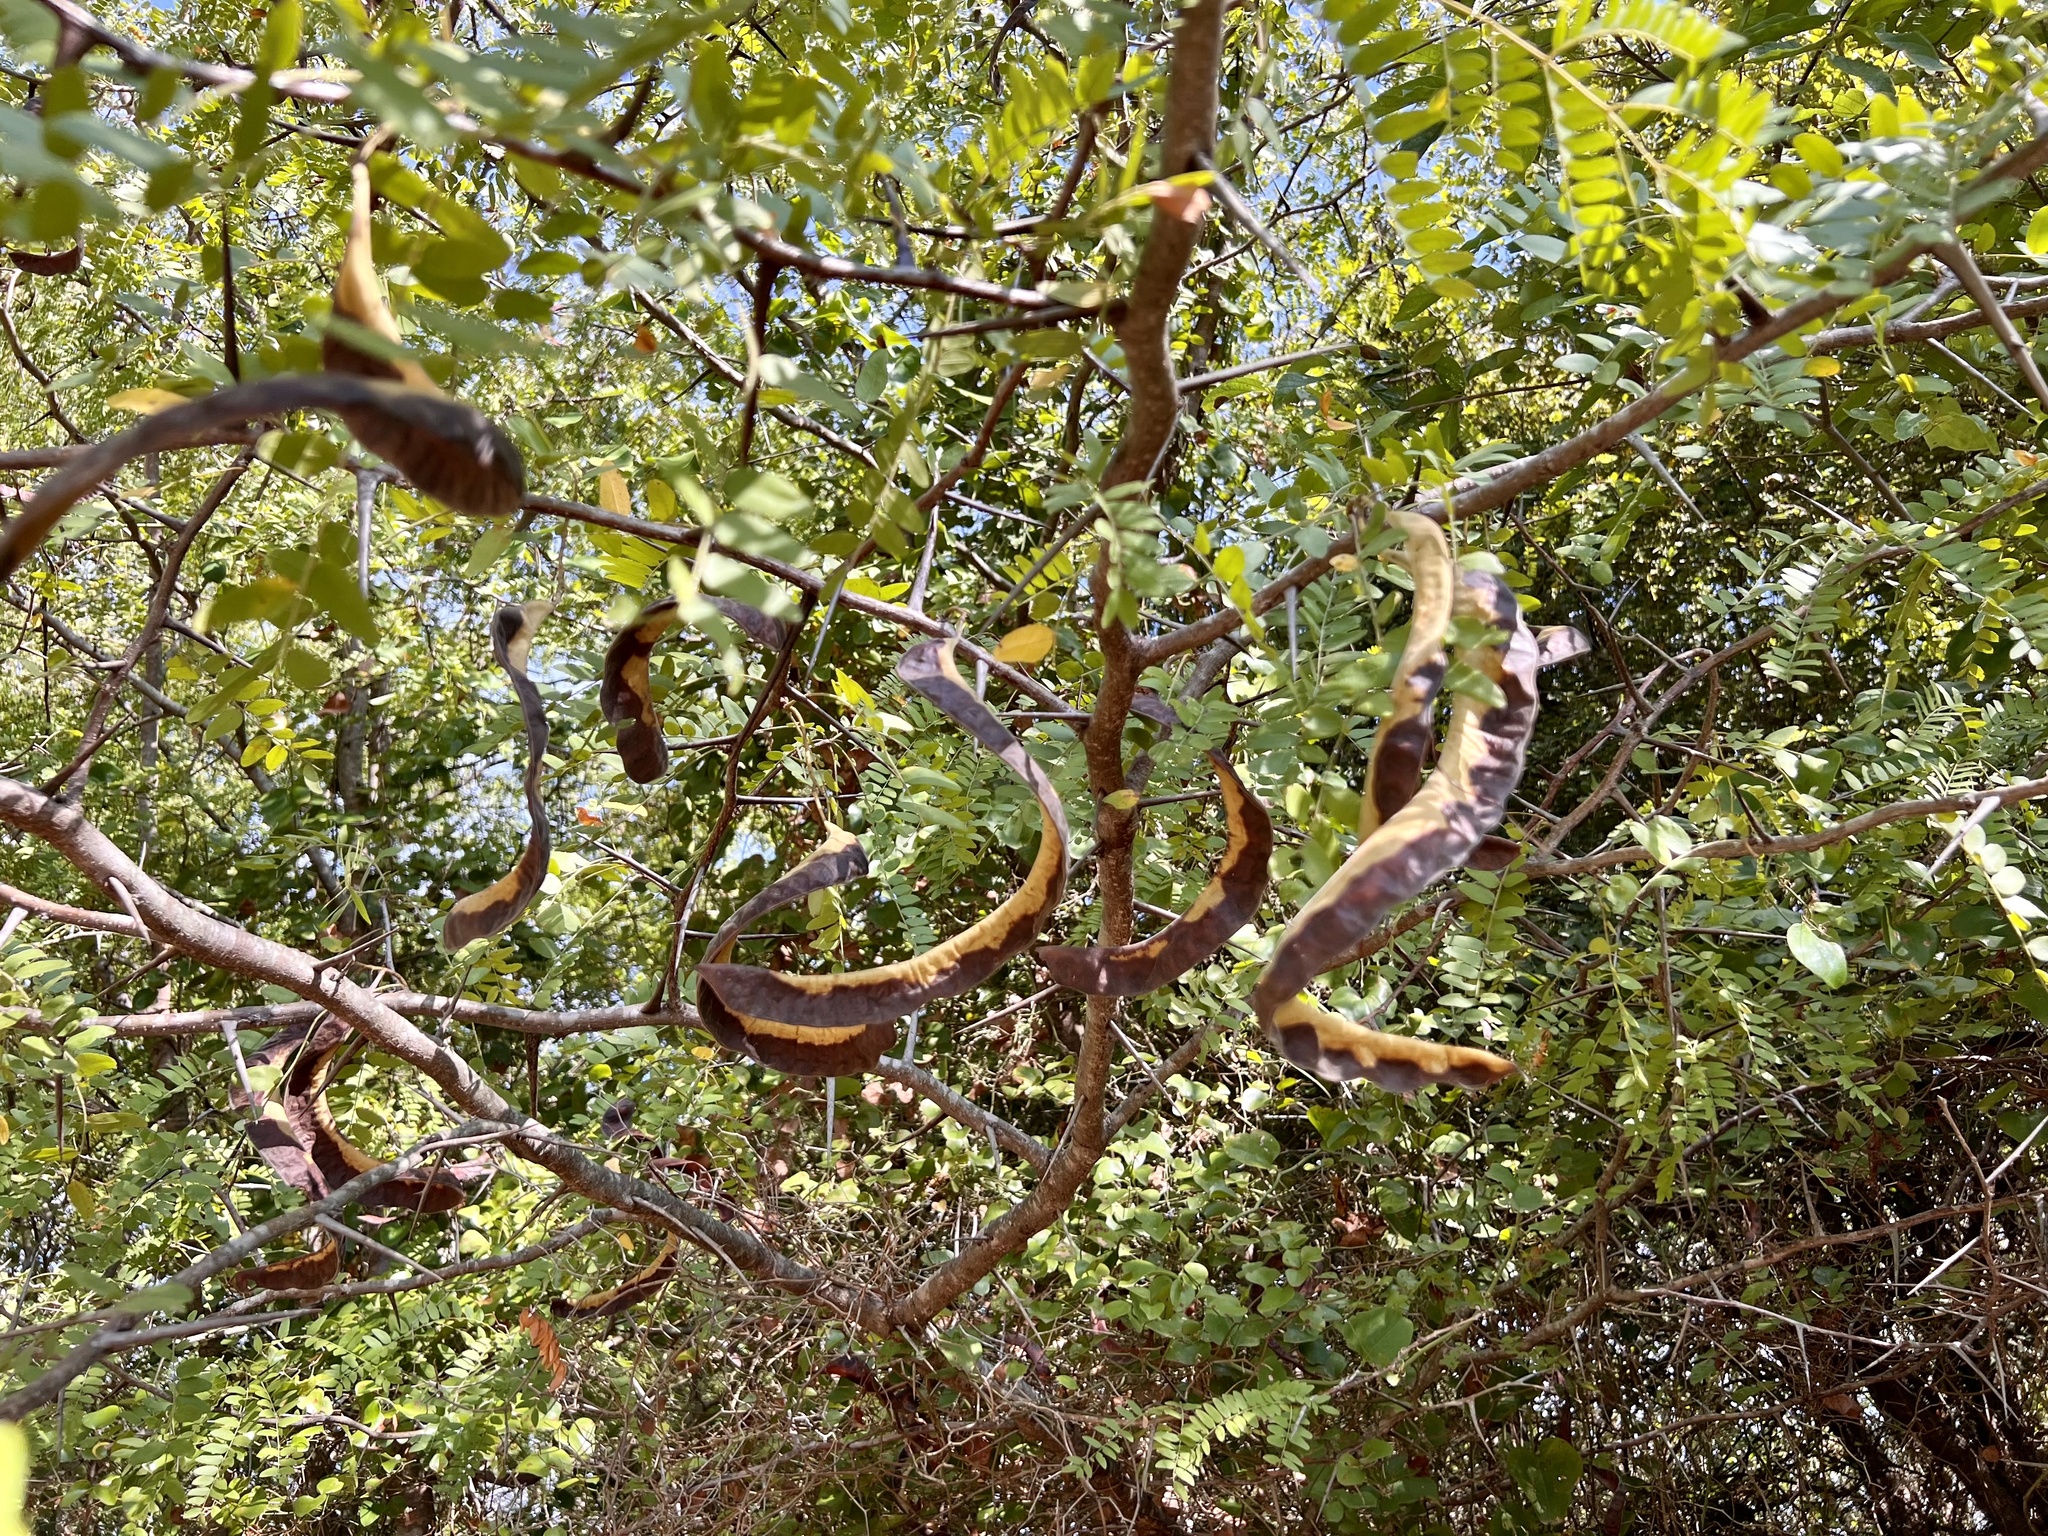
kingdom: Plantae
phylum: Tracheophyta
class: Magnoliopsida
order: Fabales
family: Fabaceae
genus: Gleditsia
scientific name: Gleditsia triacanthos
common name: Common honeylocust
